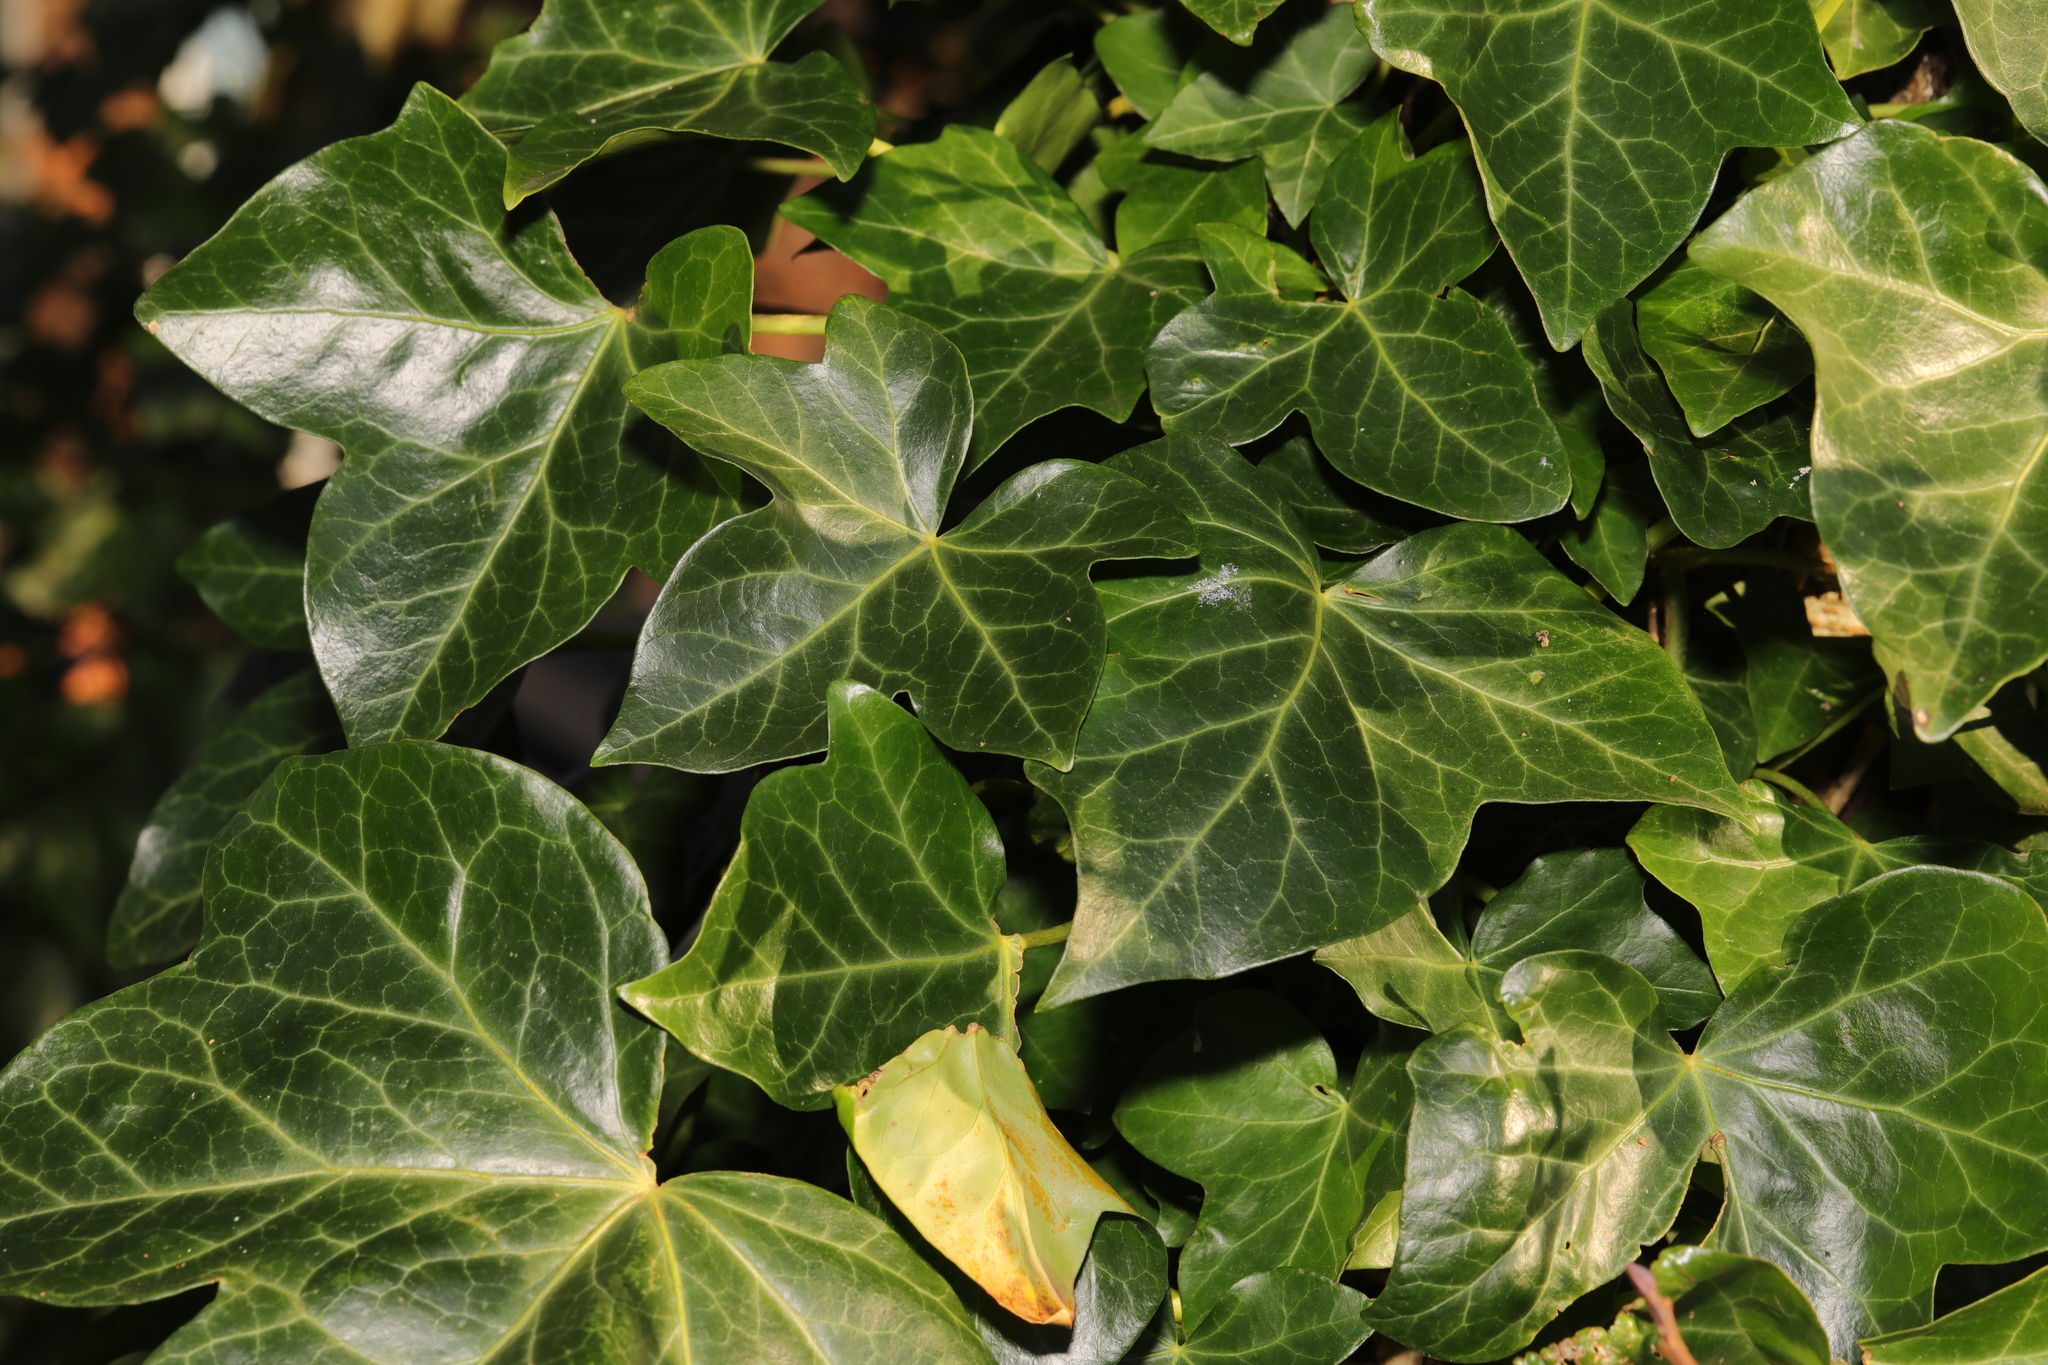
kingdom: Plantae
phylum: Tracheophyta
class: Magnoliopsida
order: Apiales
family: Araliaceae
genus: Hedera
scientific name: Hedera helix
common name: Ivy
